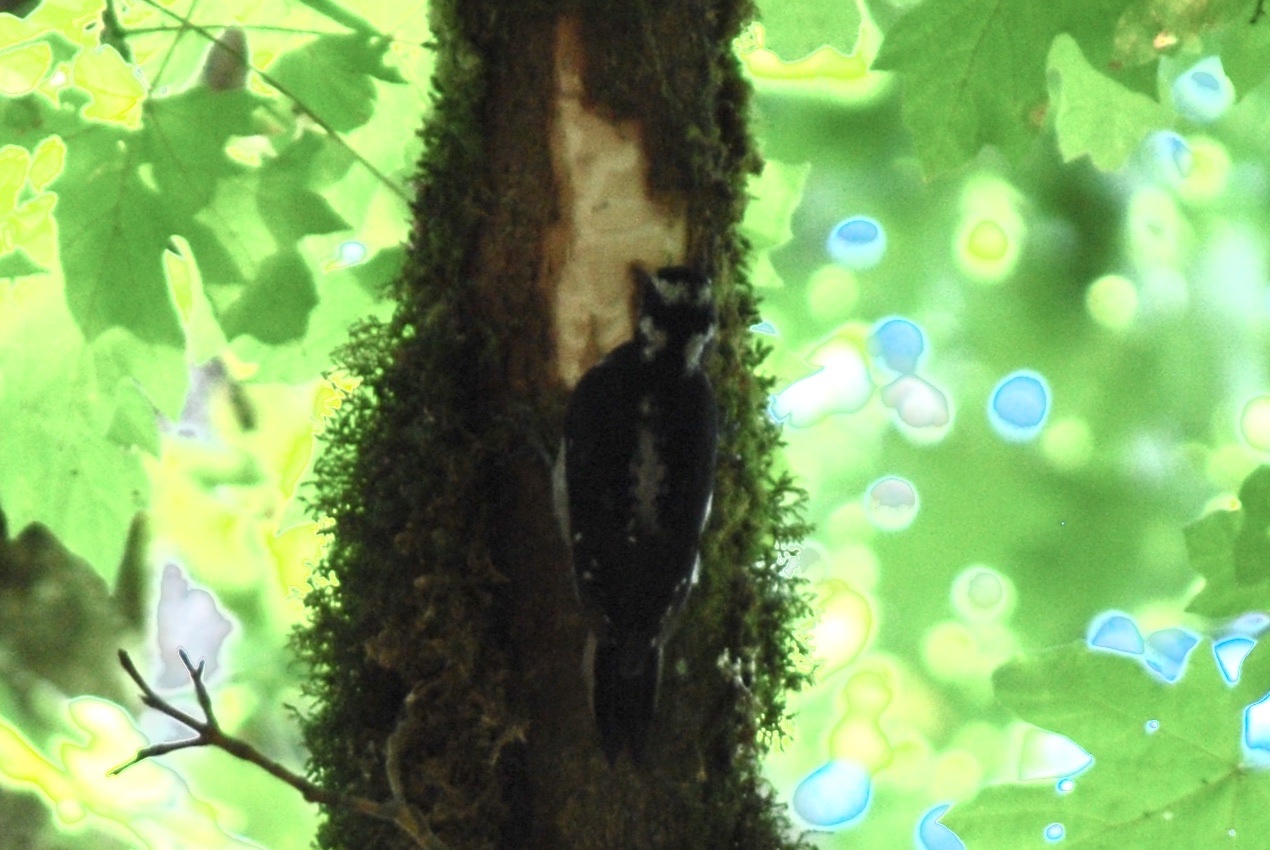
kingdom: Animalia
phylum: Chordata
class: Aves
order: Piciformes
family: Picidae
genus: Leuconotopicus
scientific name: Leuconotopicus villosus
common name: Hairy woodpecker
